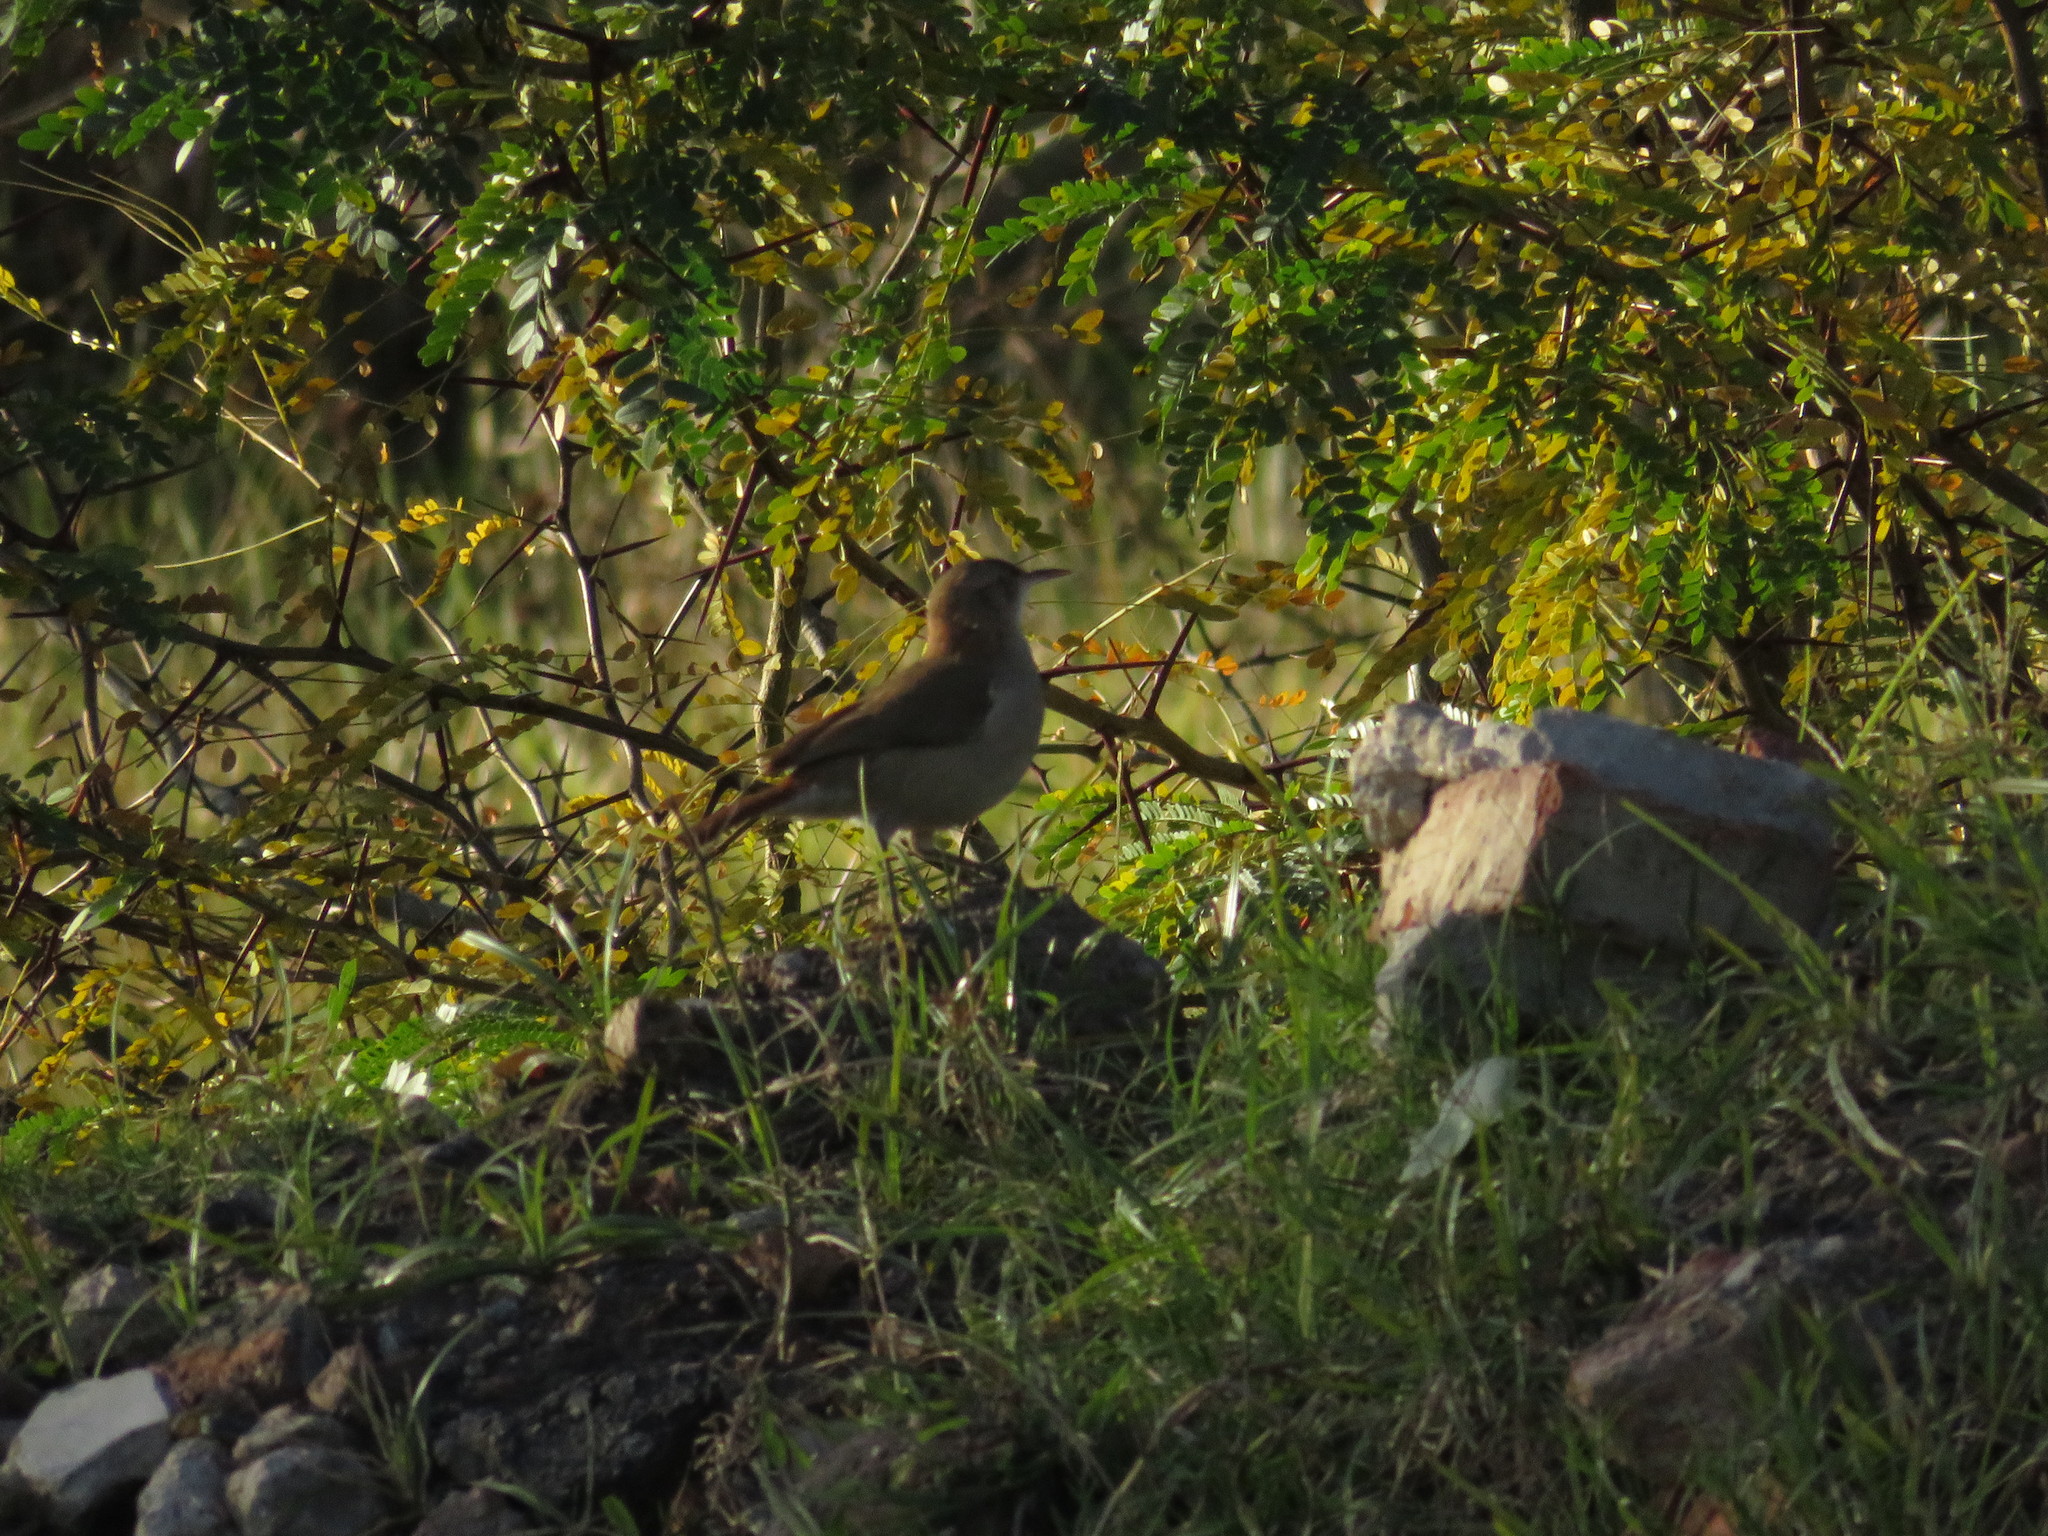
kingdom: Animalia
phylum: Chordata
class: Aves
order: Passeriformes
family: Furnariidae
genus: Furnarius
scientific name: Furnarius rufus
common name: Rufous hornero
